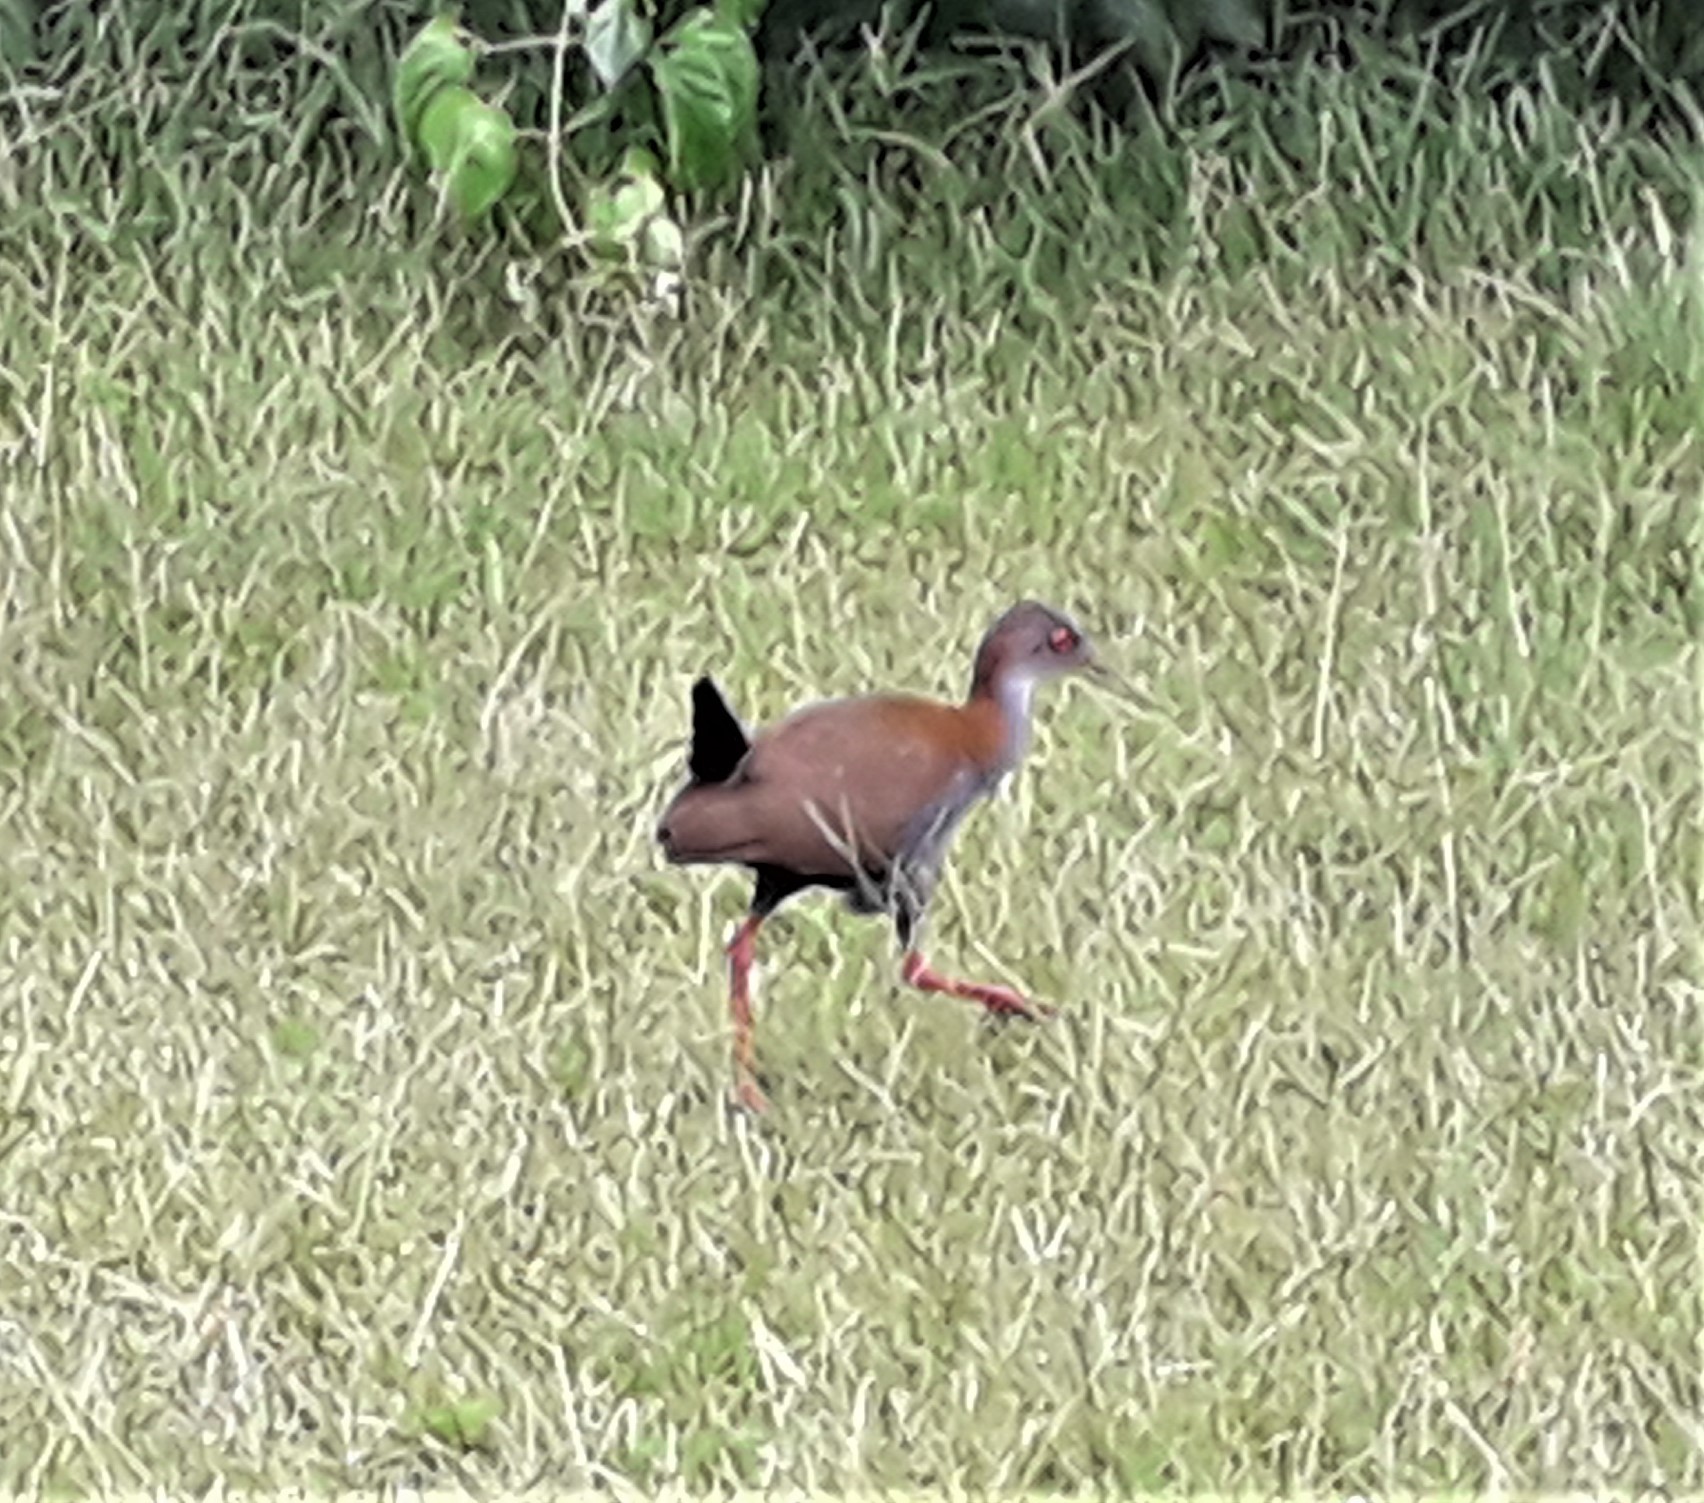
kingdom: Animalia
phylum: Chordata
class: Aves
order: Gruiformes
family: Rallidae
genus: Aramides
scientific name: Aramides saracura
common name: Slaty-breasted wood rail
